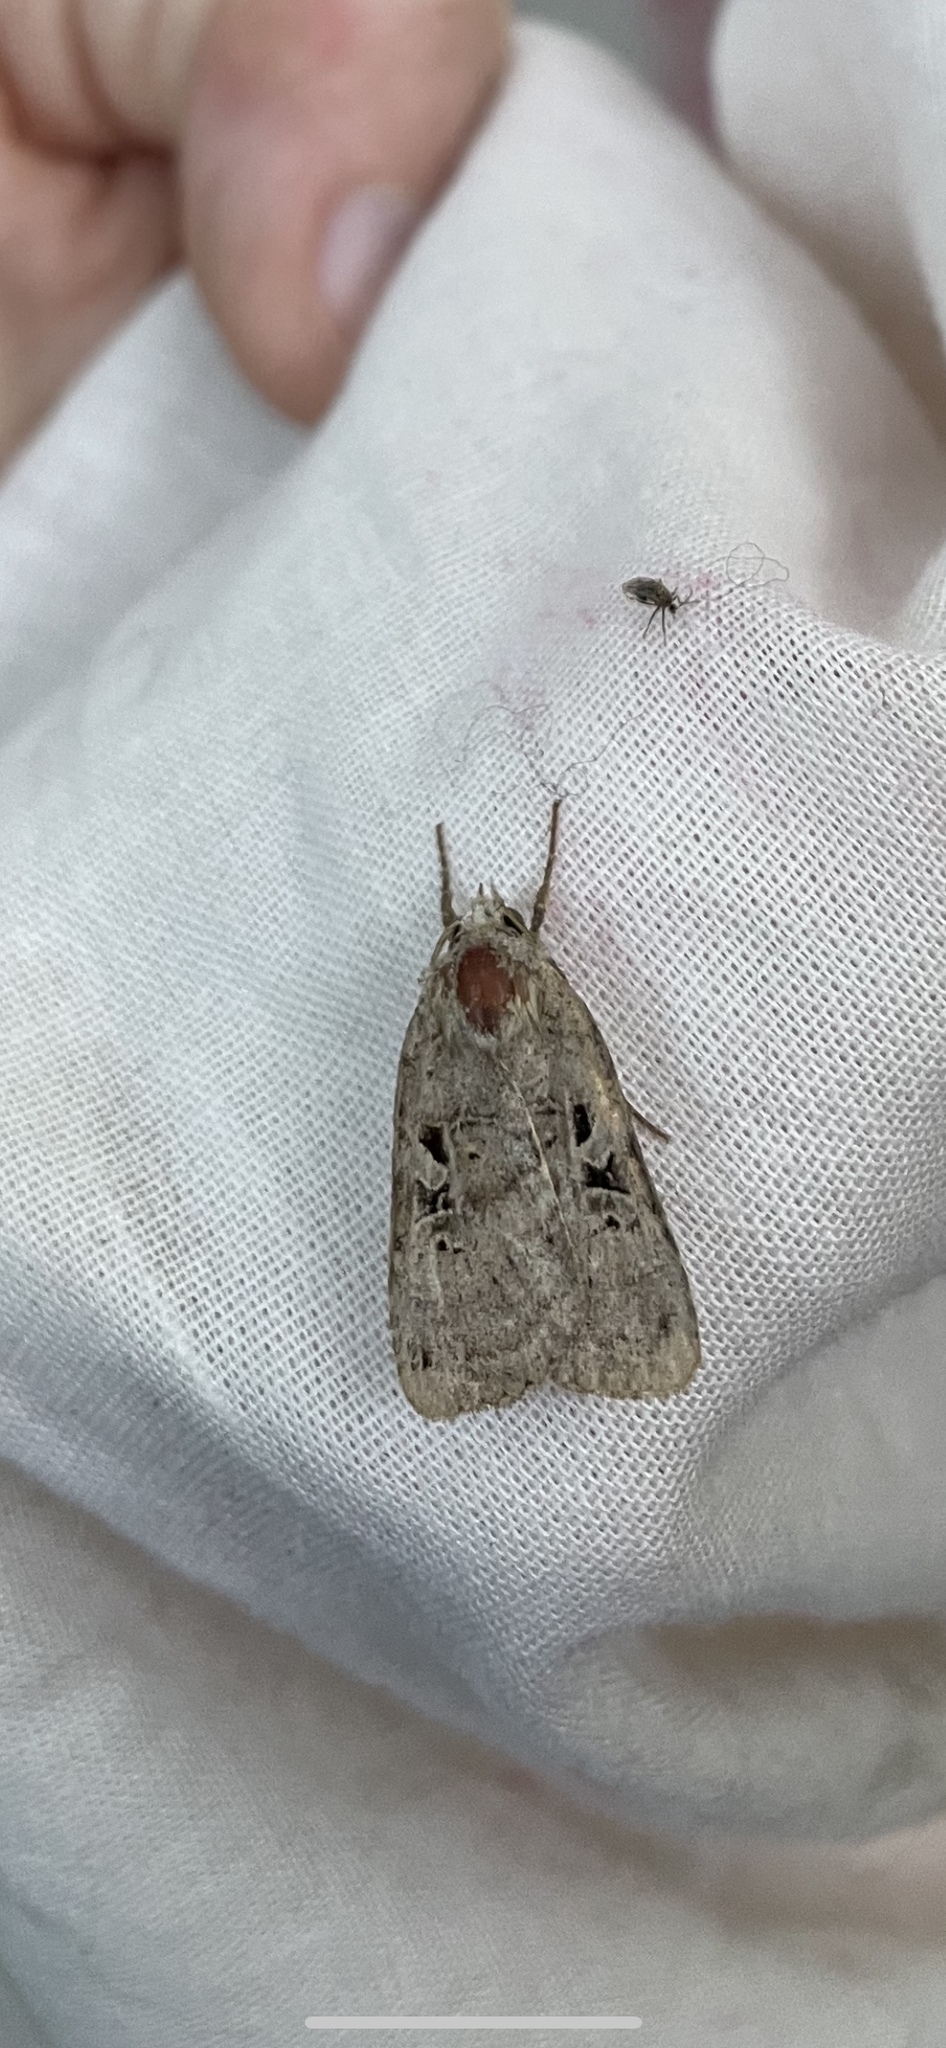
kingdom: Animalia
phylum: Arthropoda
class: Insecta
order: Lepidoptera
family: Noctuidae
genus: Xestia
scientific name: Xestia normaniana
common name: Norman's dart moth
